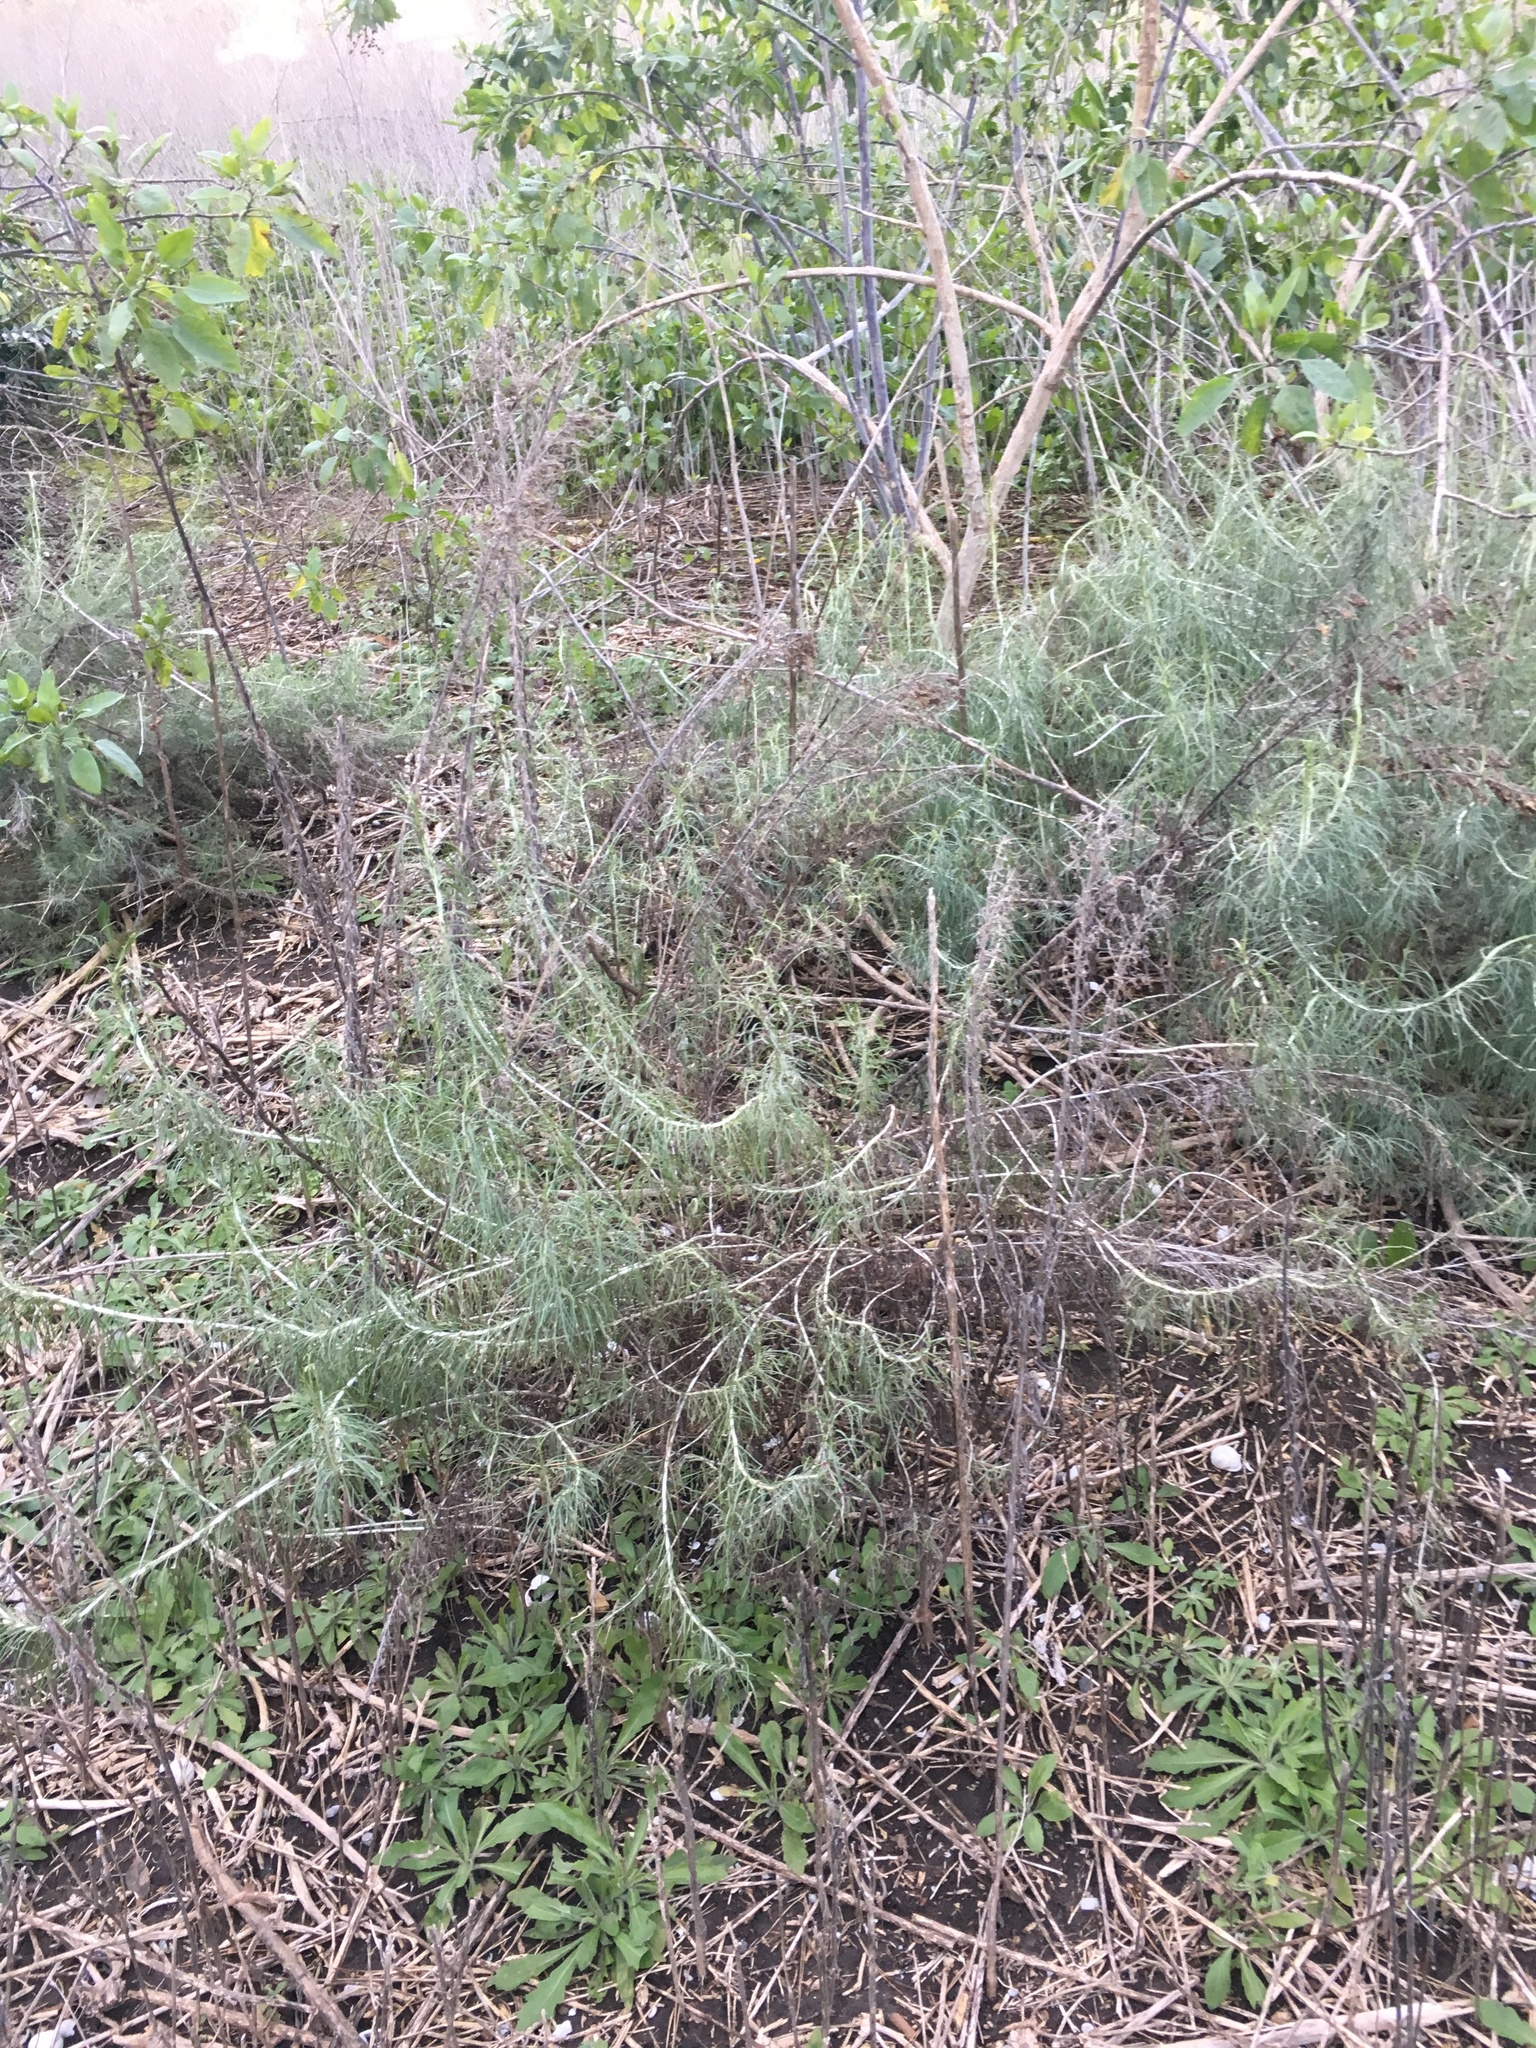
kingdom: Plantae
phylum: Tracheophyta
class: Magnoliopsida
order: Asterales
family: Asteraceae
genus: Artemisia
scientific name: Artemisia californica
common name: California sagebrush
